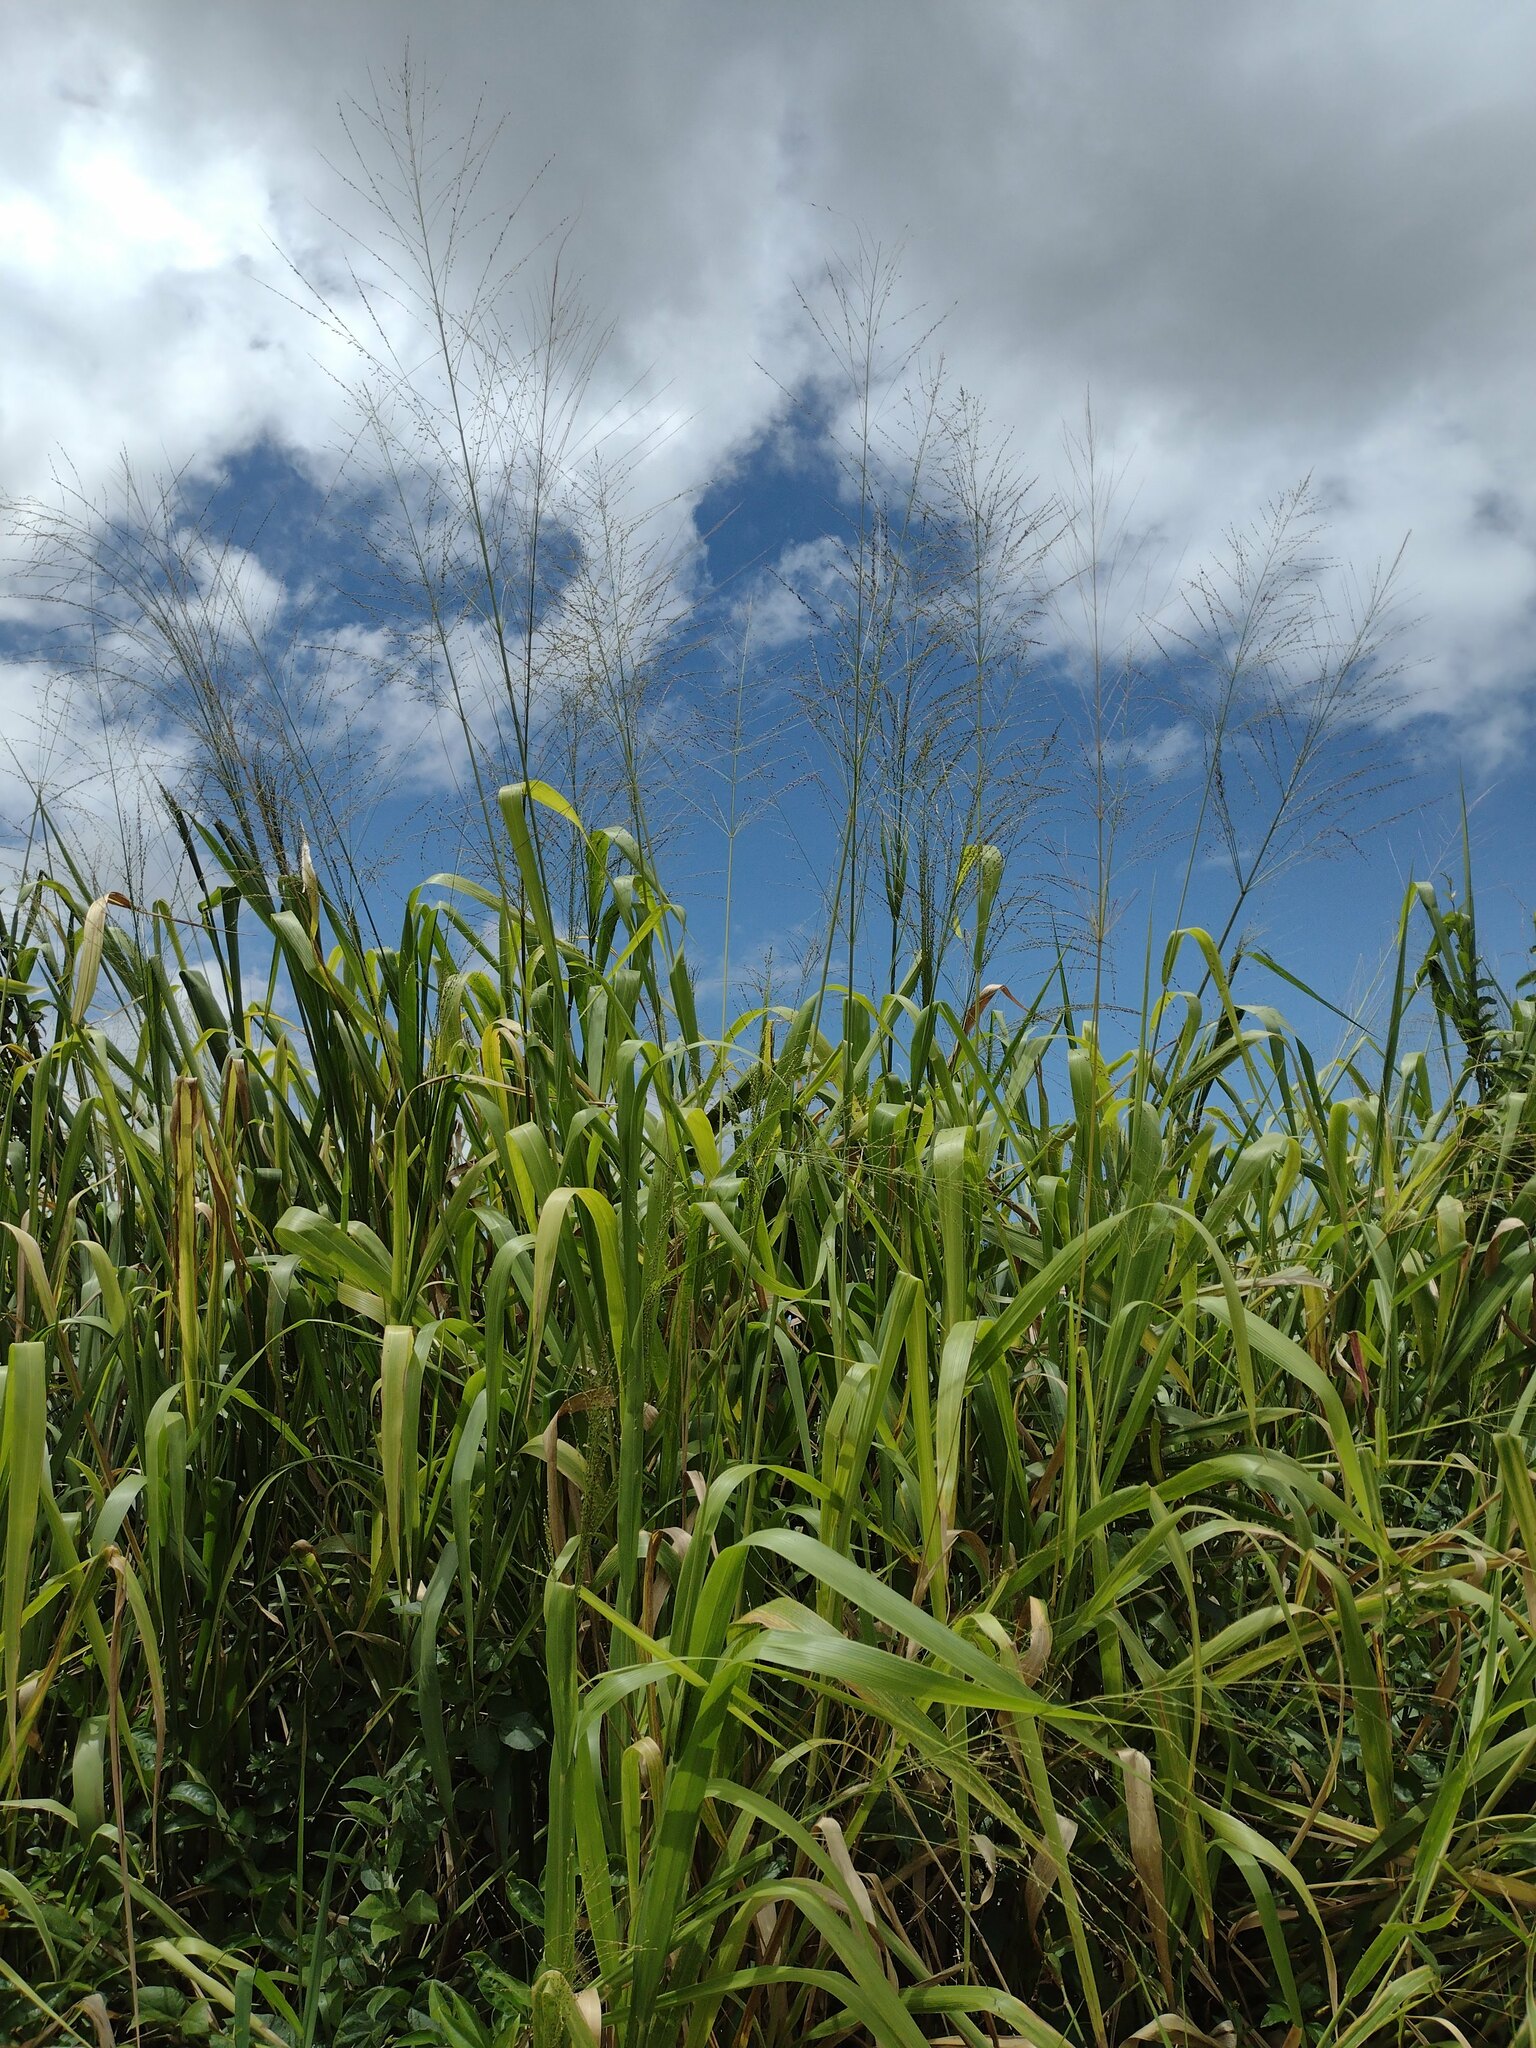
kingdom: Plantae
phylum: Tracheophyta
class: Liliopsida
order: Poales
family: Poaceae
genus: Megathyrsus
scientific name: Megathyrsus maximus
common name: Guineagrass
